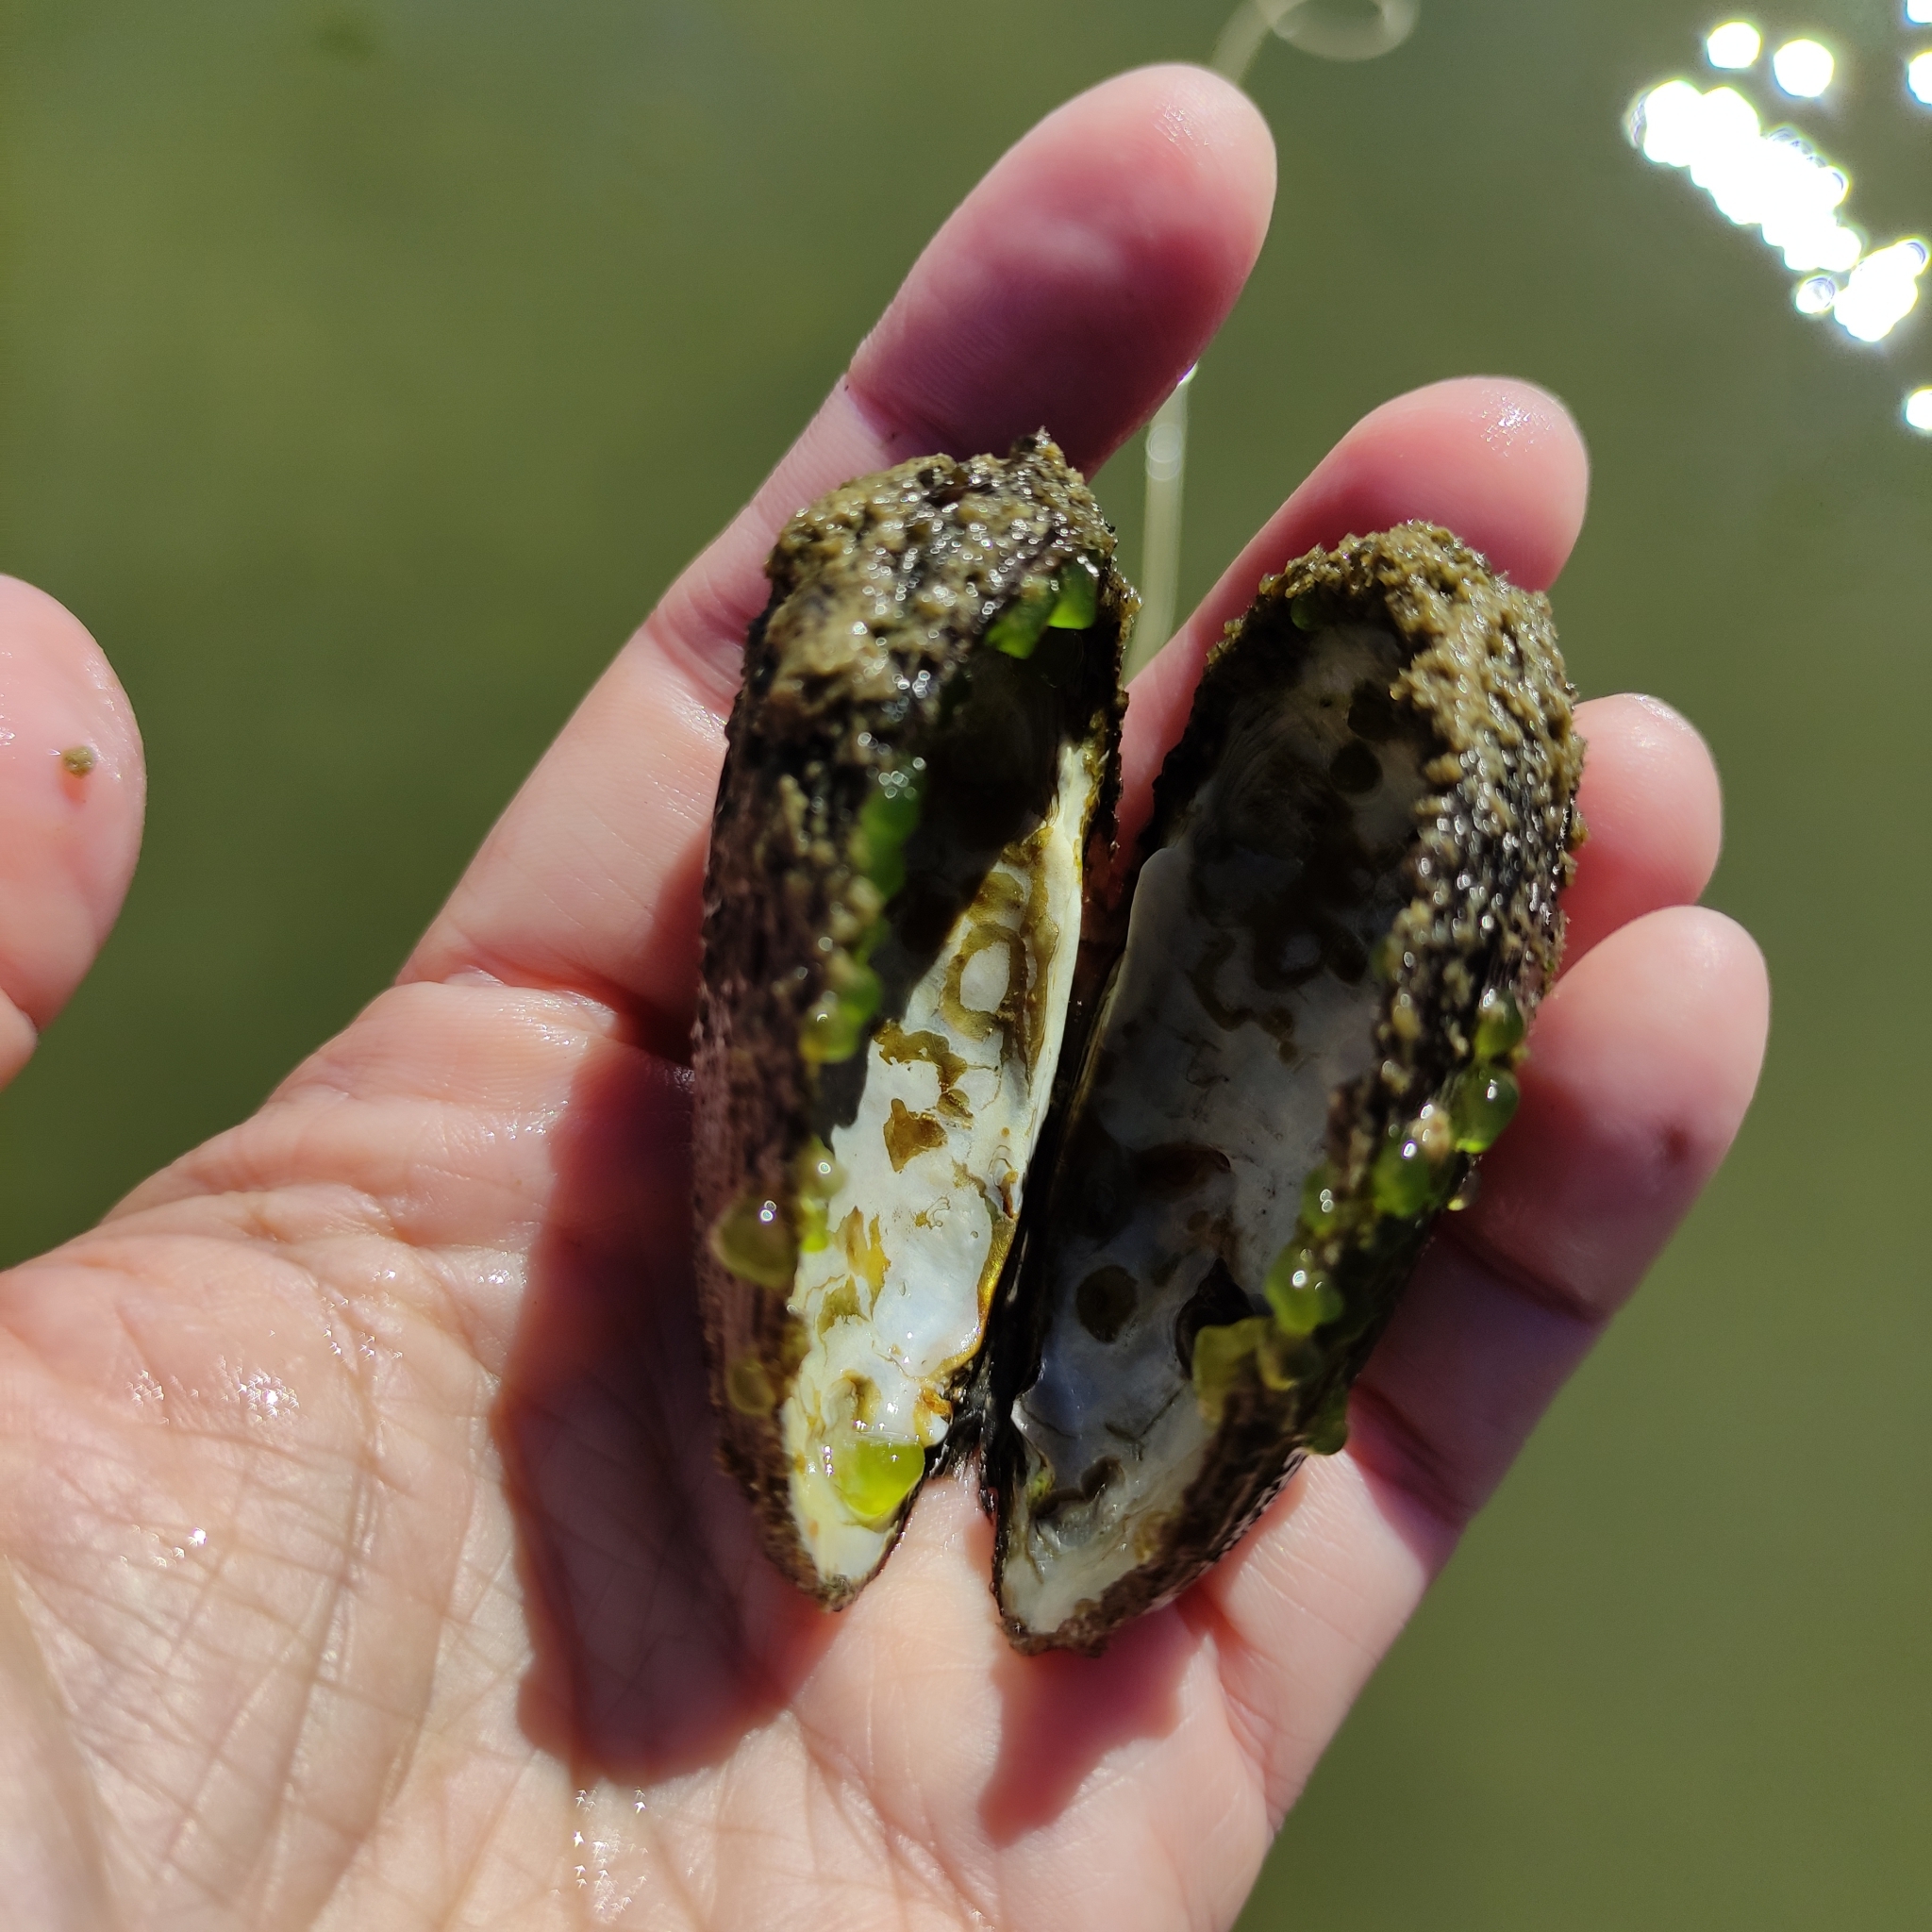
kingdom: Animalia
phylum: Mollusca
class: Bivalvia
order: Unionida
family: Hyriidae
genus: Echyridella
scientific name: Echyridella menziesii
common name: New zealand freshwater mussel
